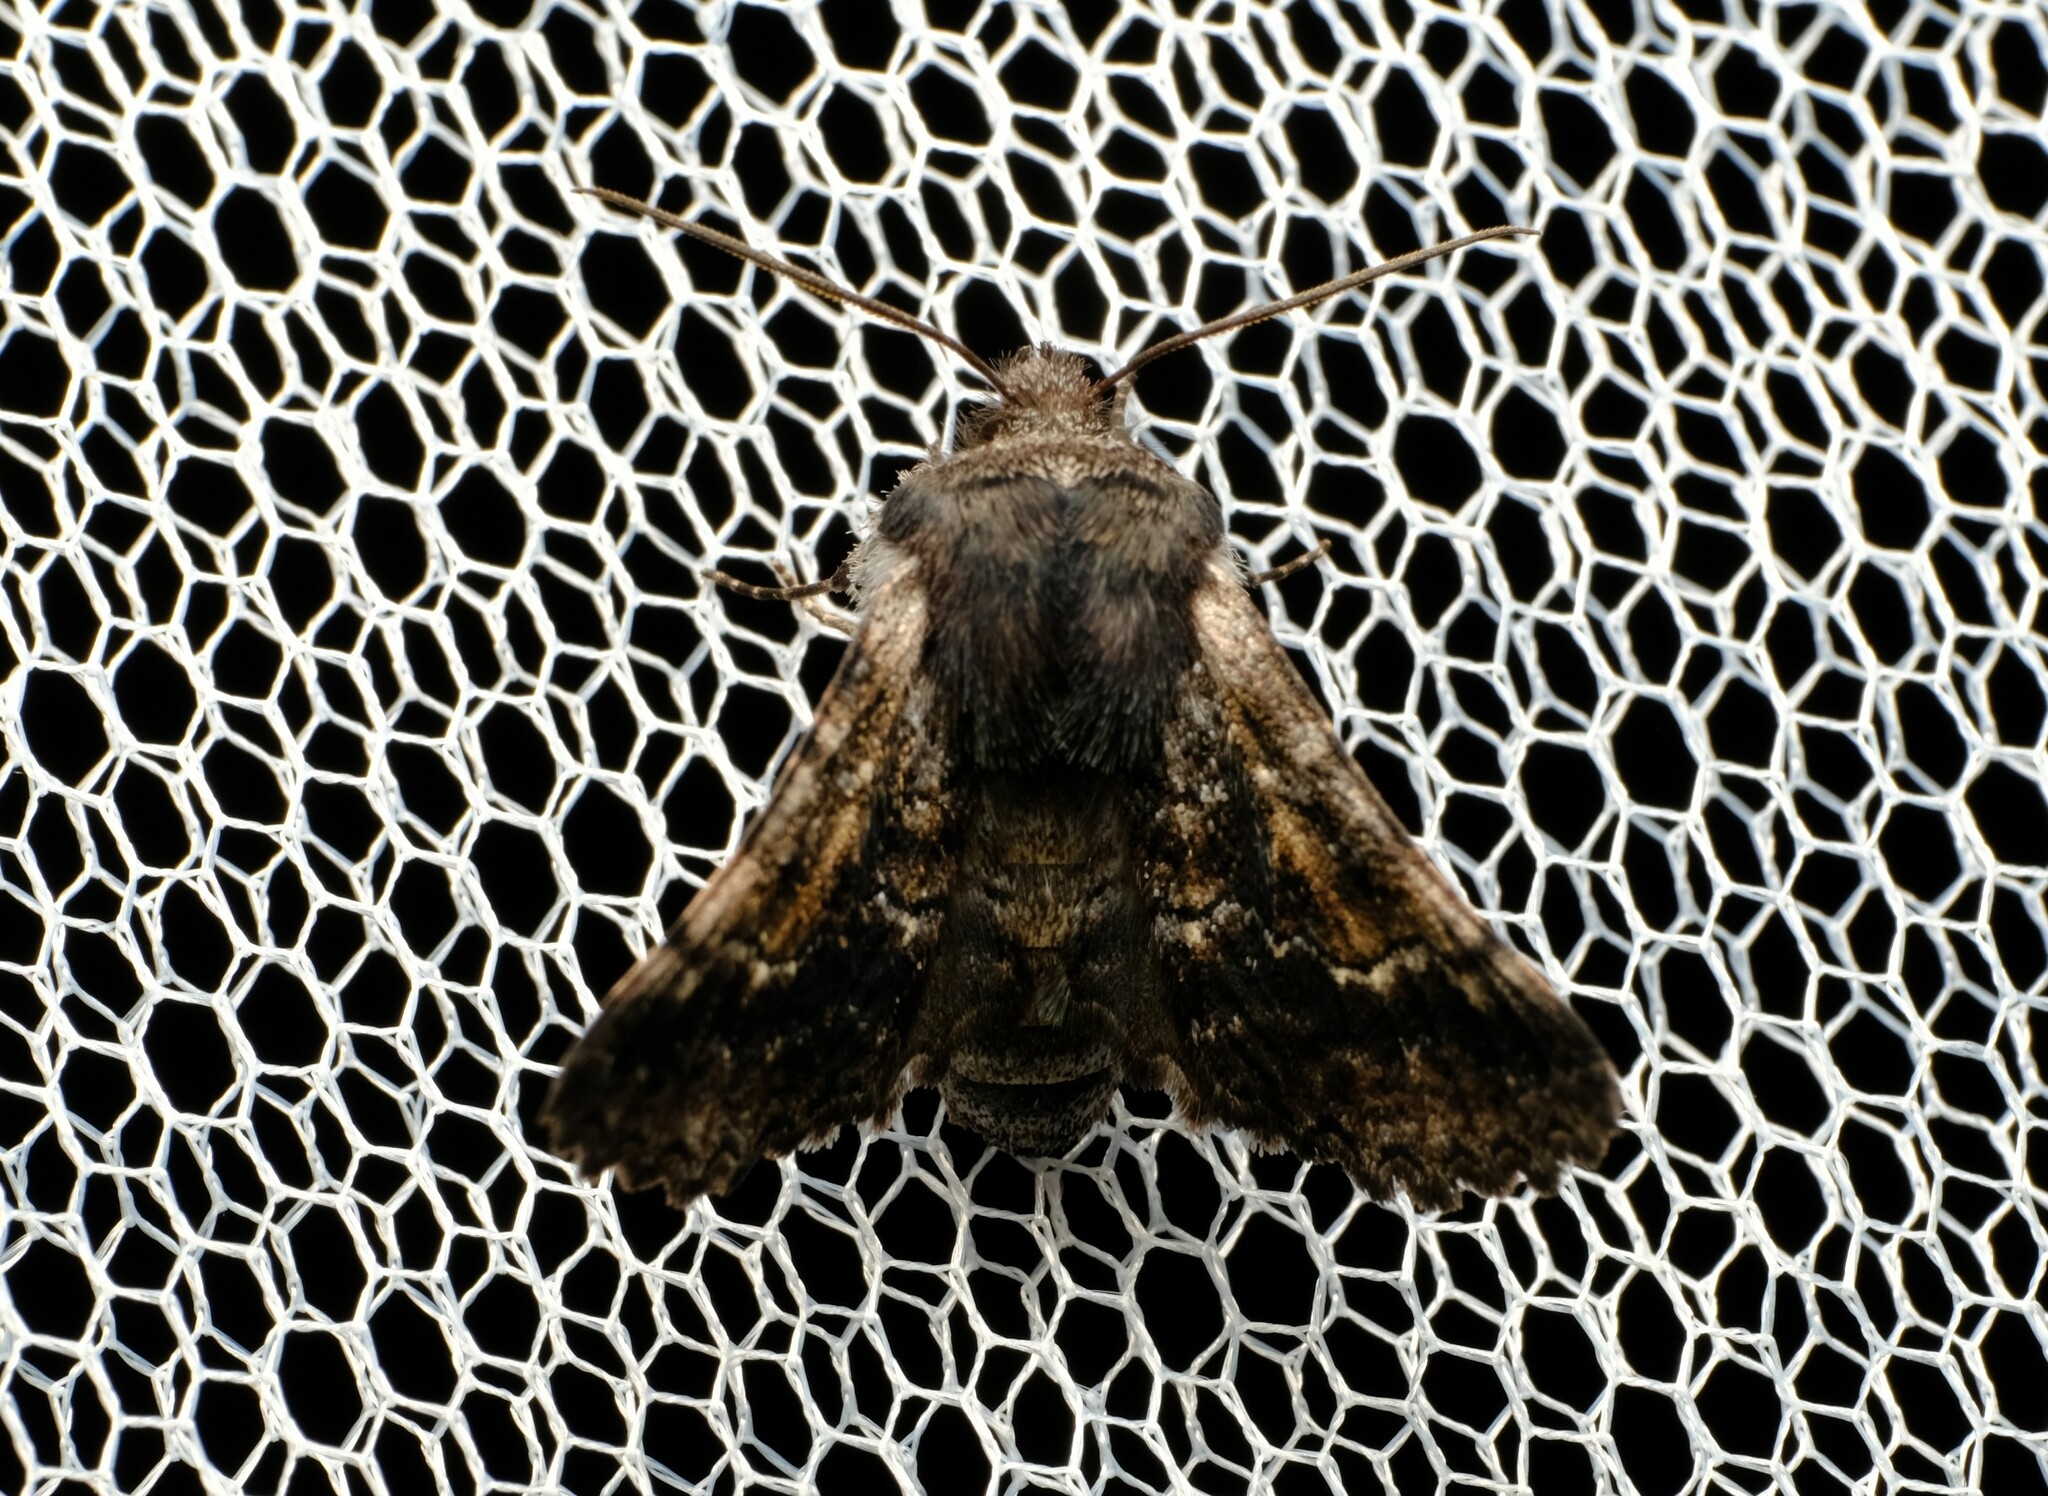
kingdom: Animalia
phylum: Arthropoda
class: Insecta
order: Lepidoptera
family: Geometridae
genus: Dinophalus
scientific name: Dinophalus ampycteria
